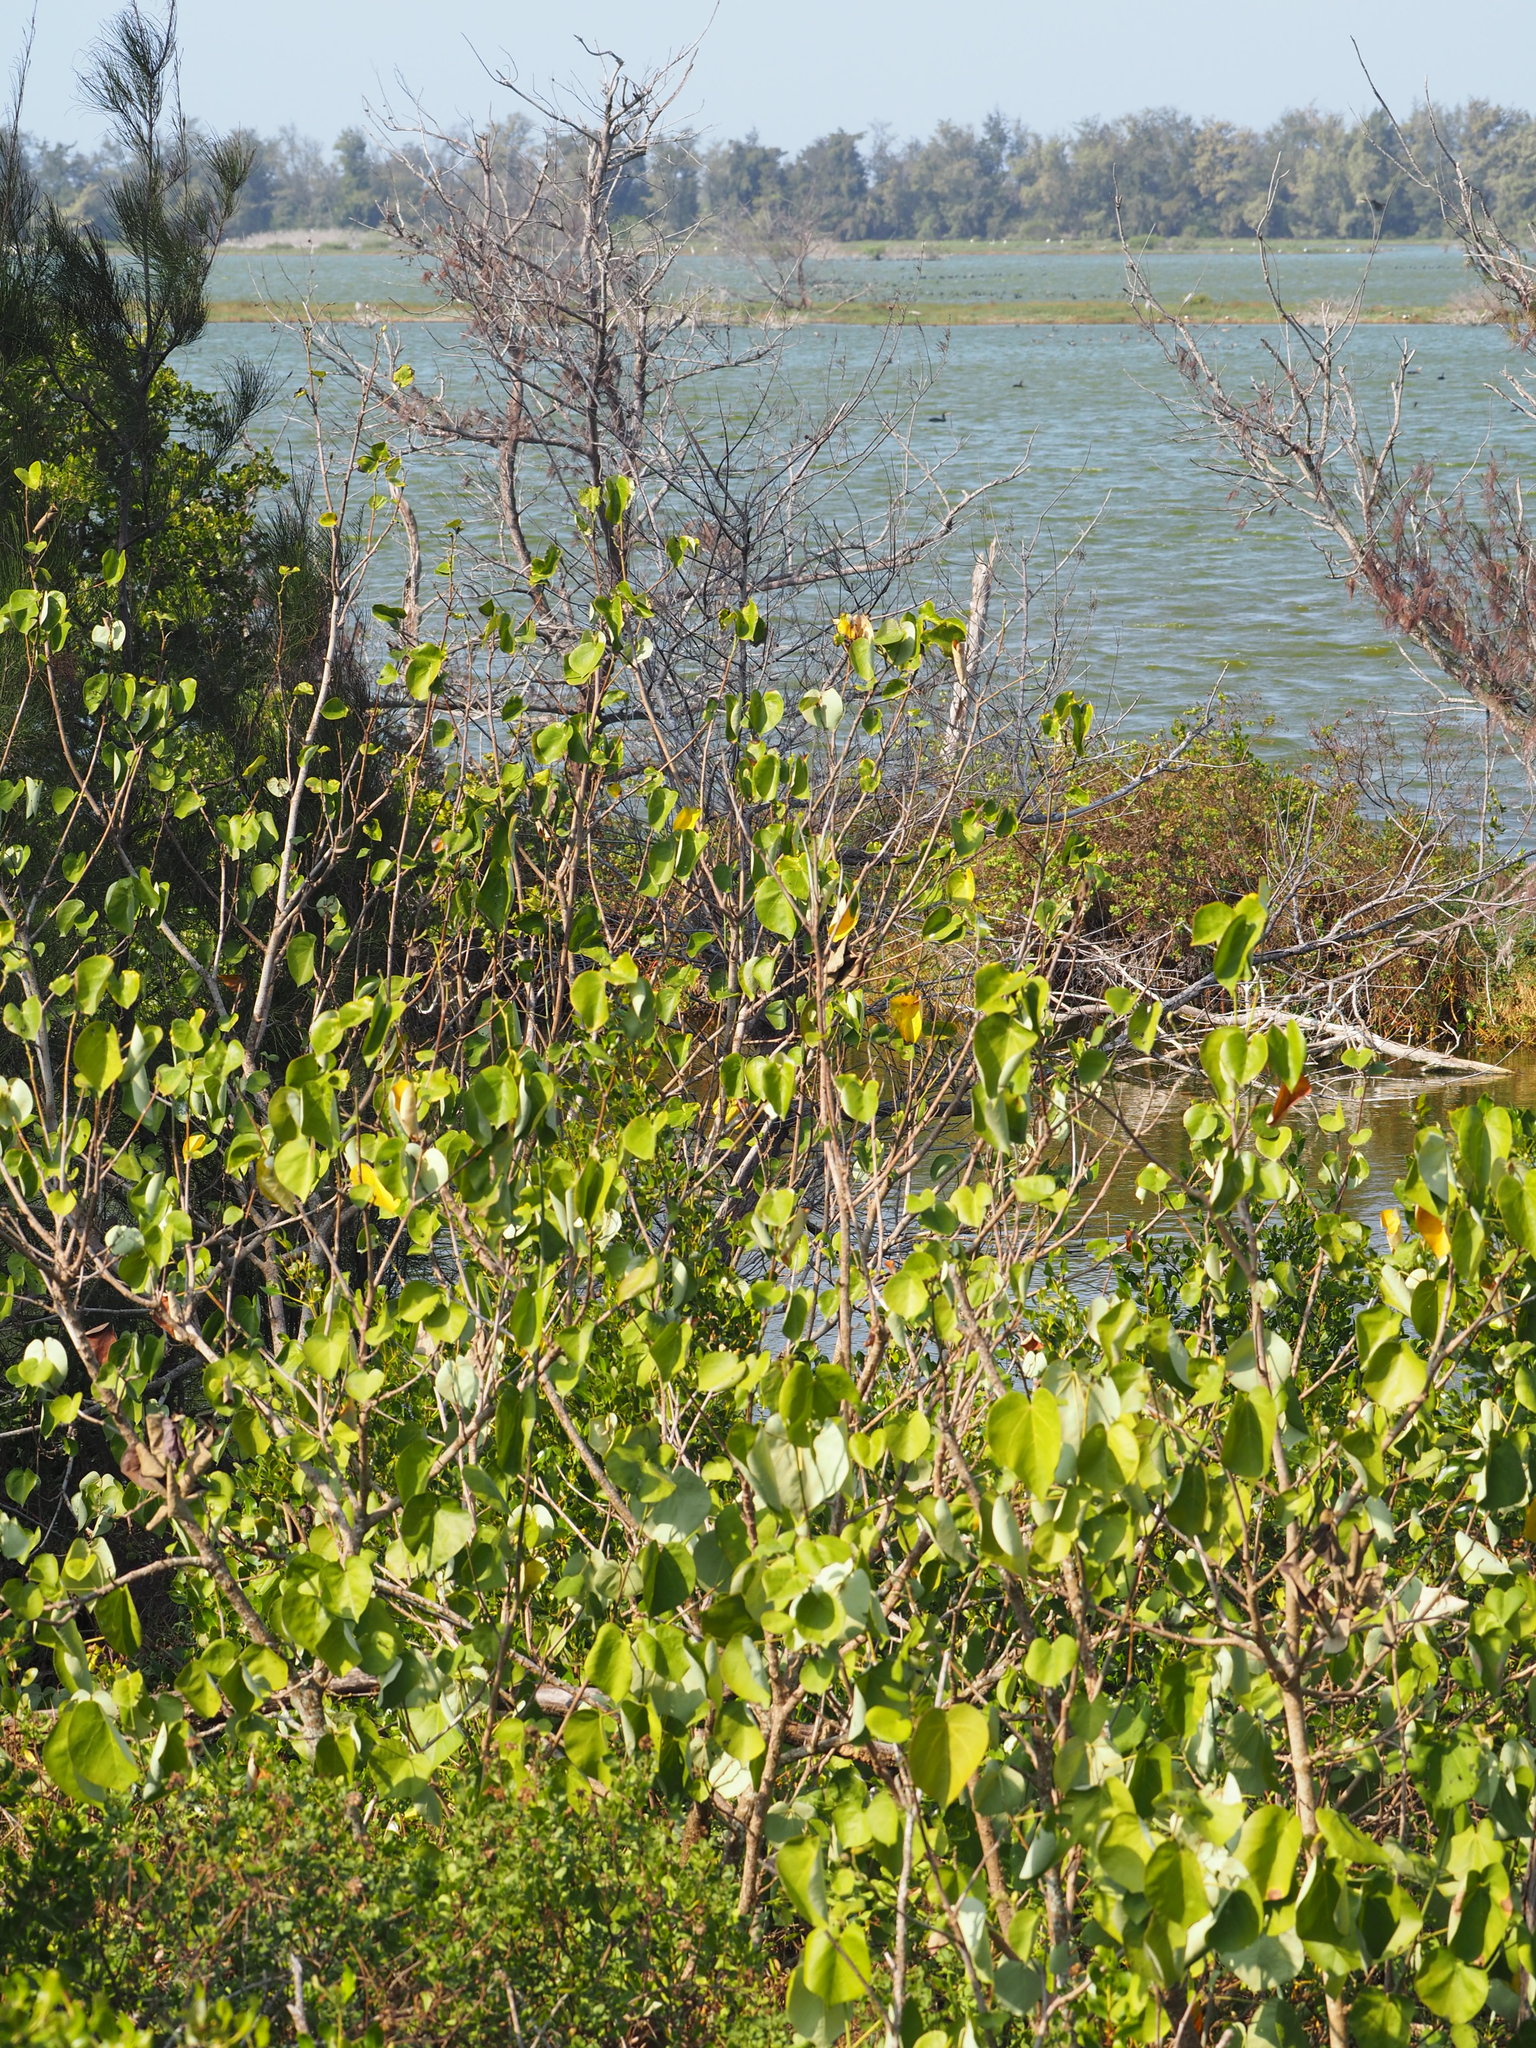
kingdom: Plantae
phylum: Tracheophyta
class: Magnoliopsida
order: Malvales
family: Malvaceae
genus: Talipariti
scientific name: Talipariti tiliaceum
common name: Sea hibiscus
